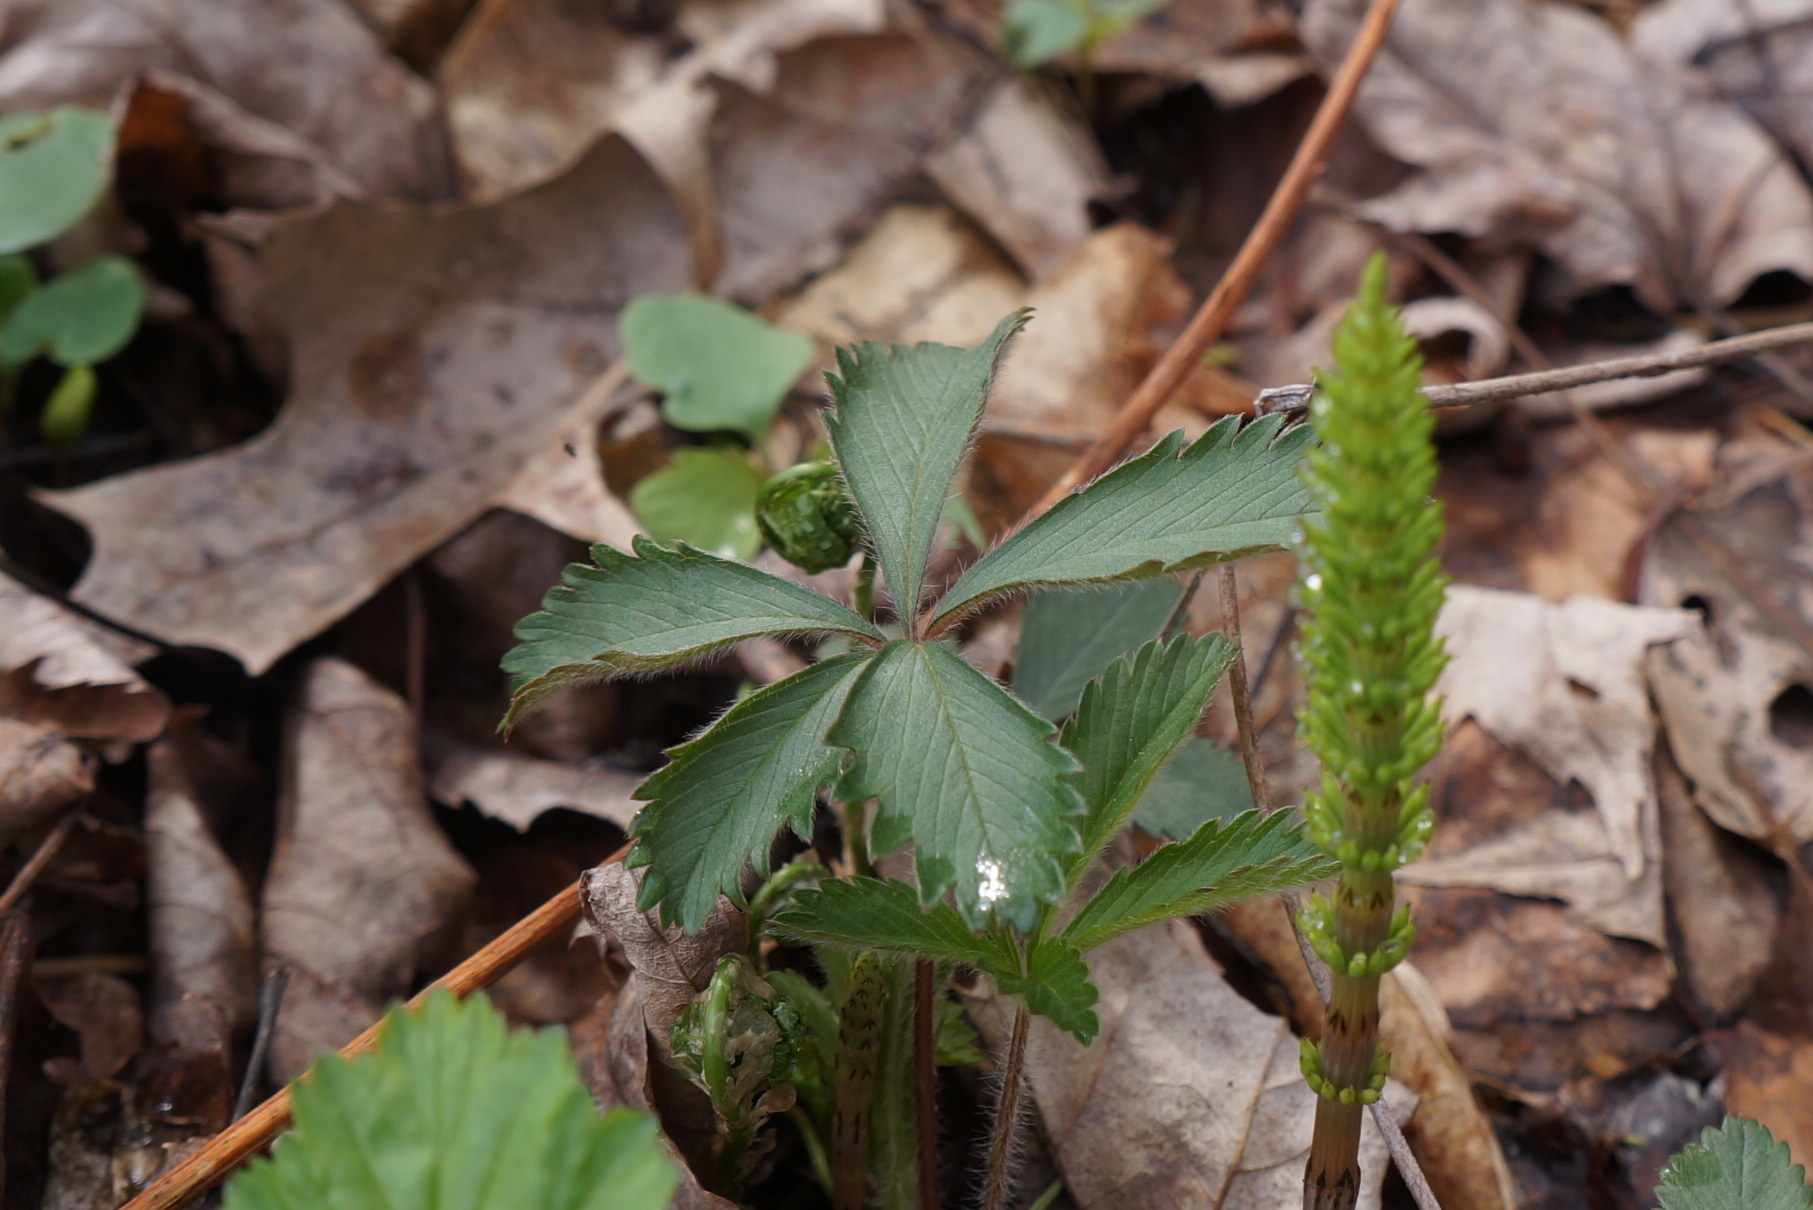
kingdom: Plantae
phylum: Tracheophyta
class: Magnoliopsida
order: Vitales
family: Vitaceae
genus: Parthenocissus
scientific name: Parthenocissus quinquefolia
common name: Virginia-creeper
